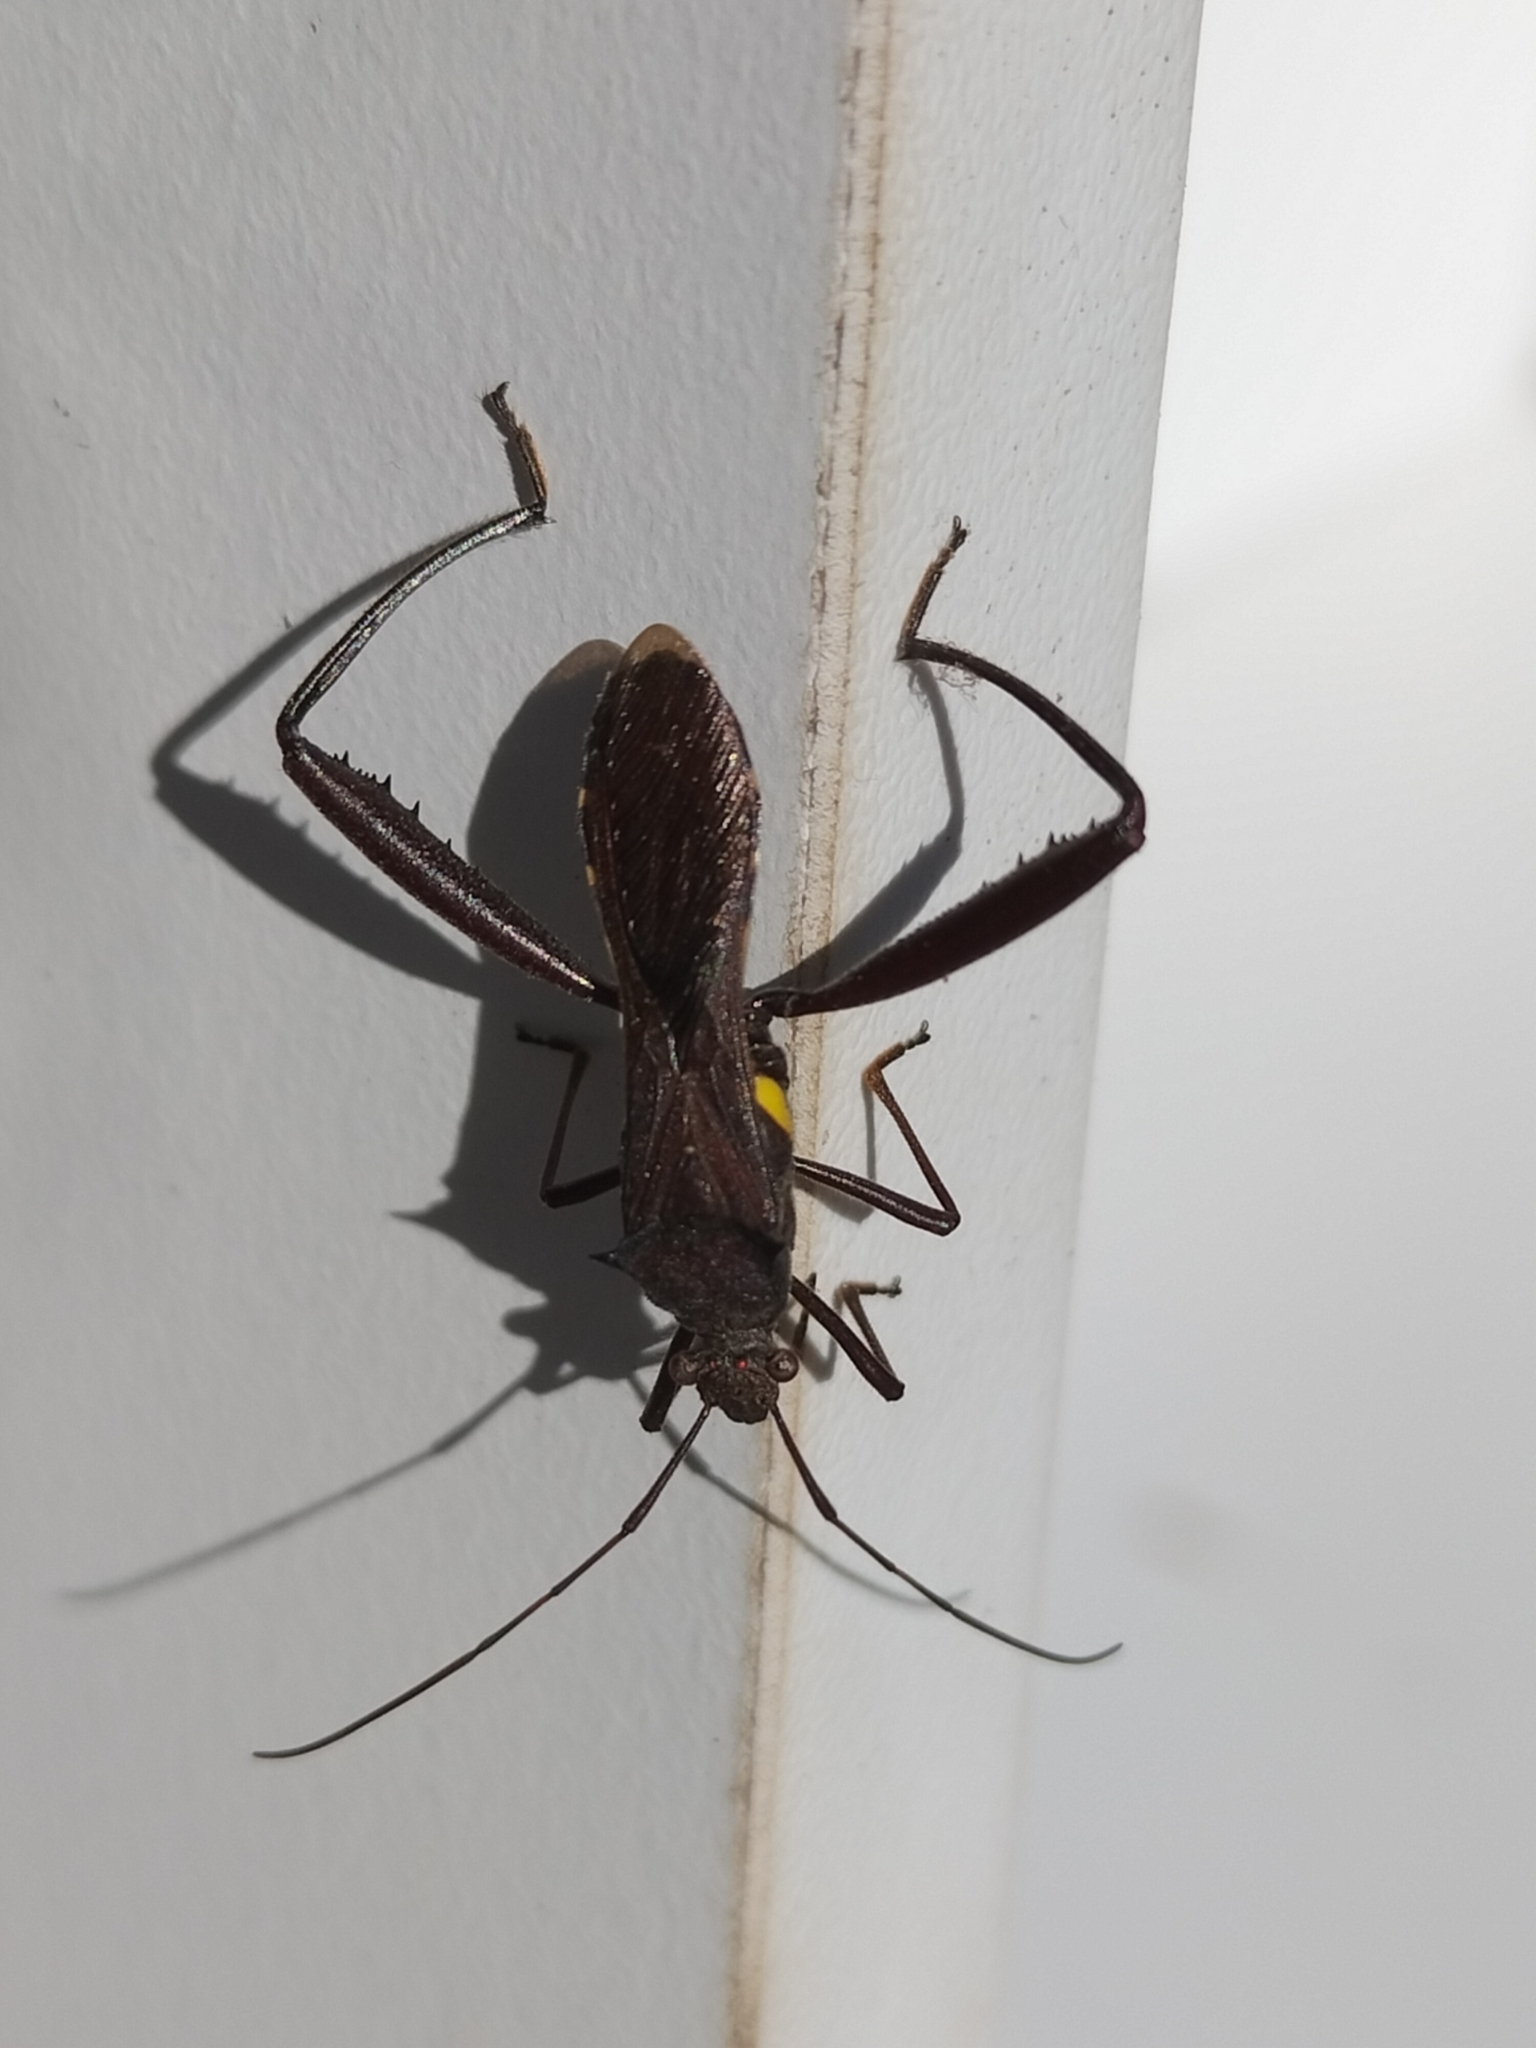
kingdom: Animalia
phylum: Arthropoda
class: Insecta
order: Hemiptera
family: Alydidae
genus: Riptortus
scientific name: Riptortus serripes
